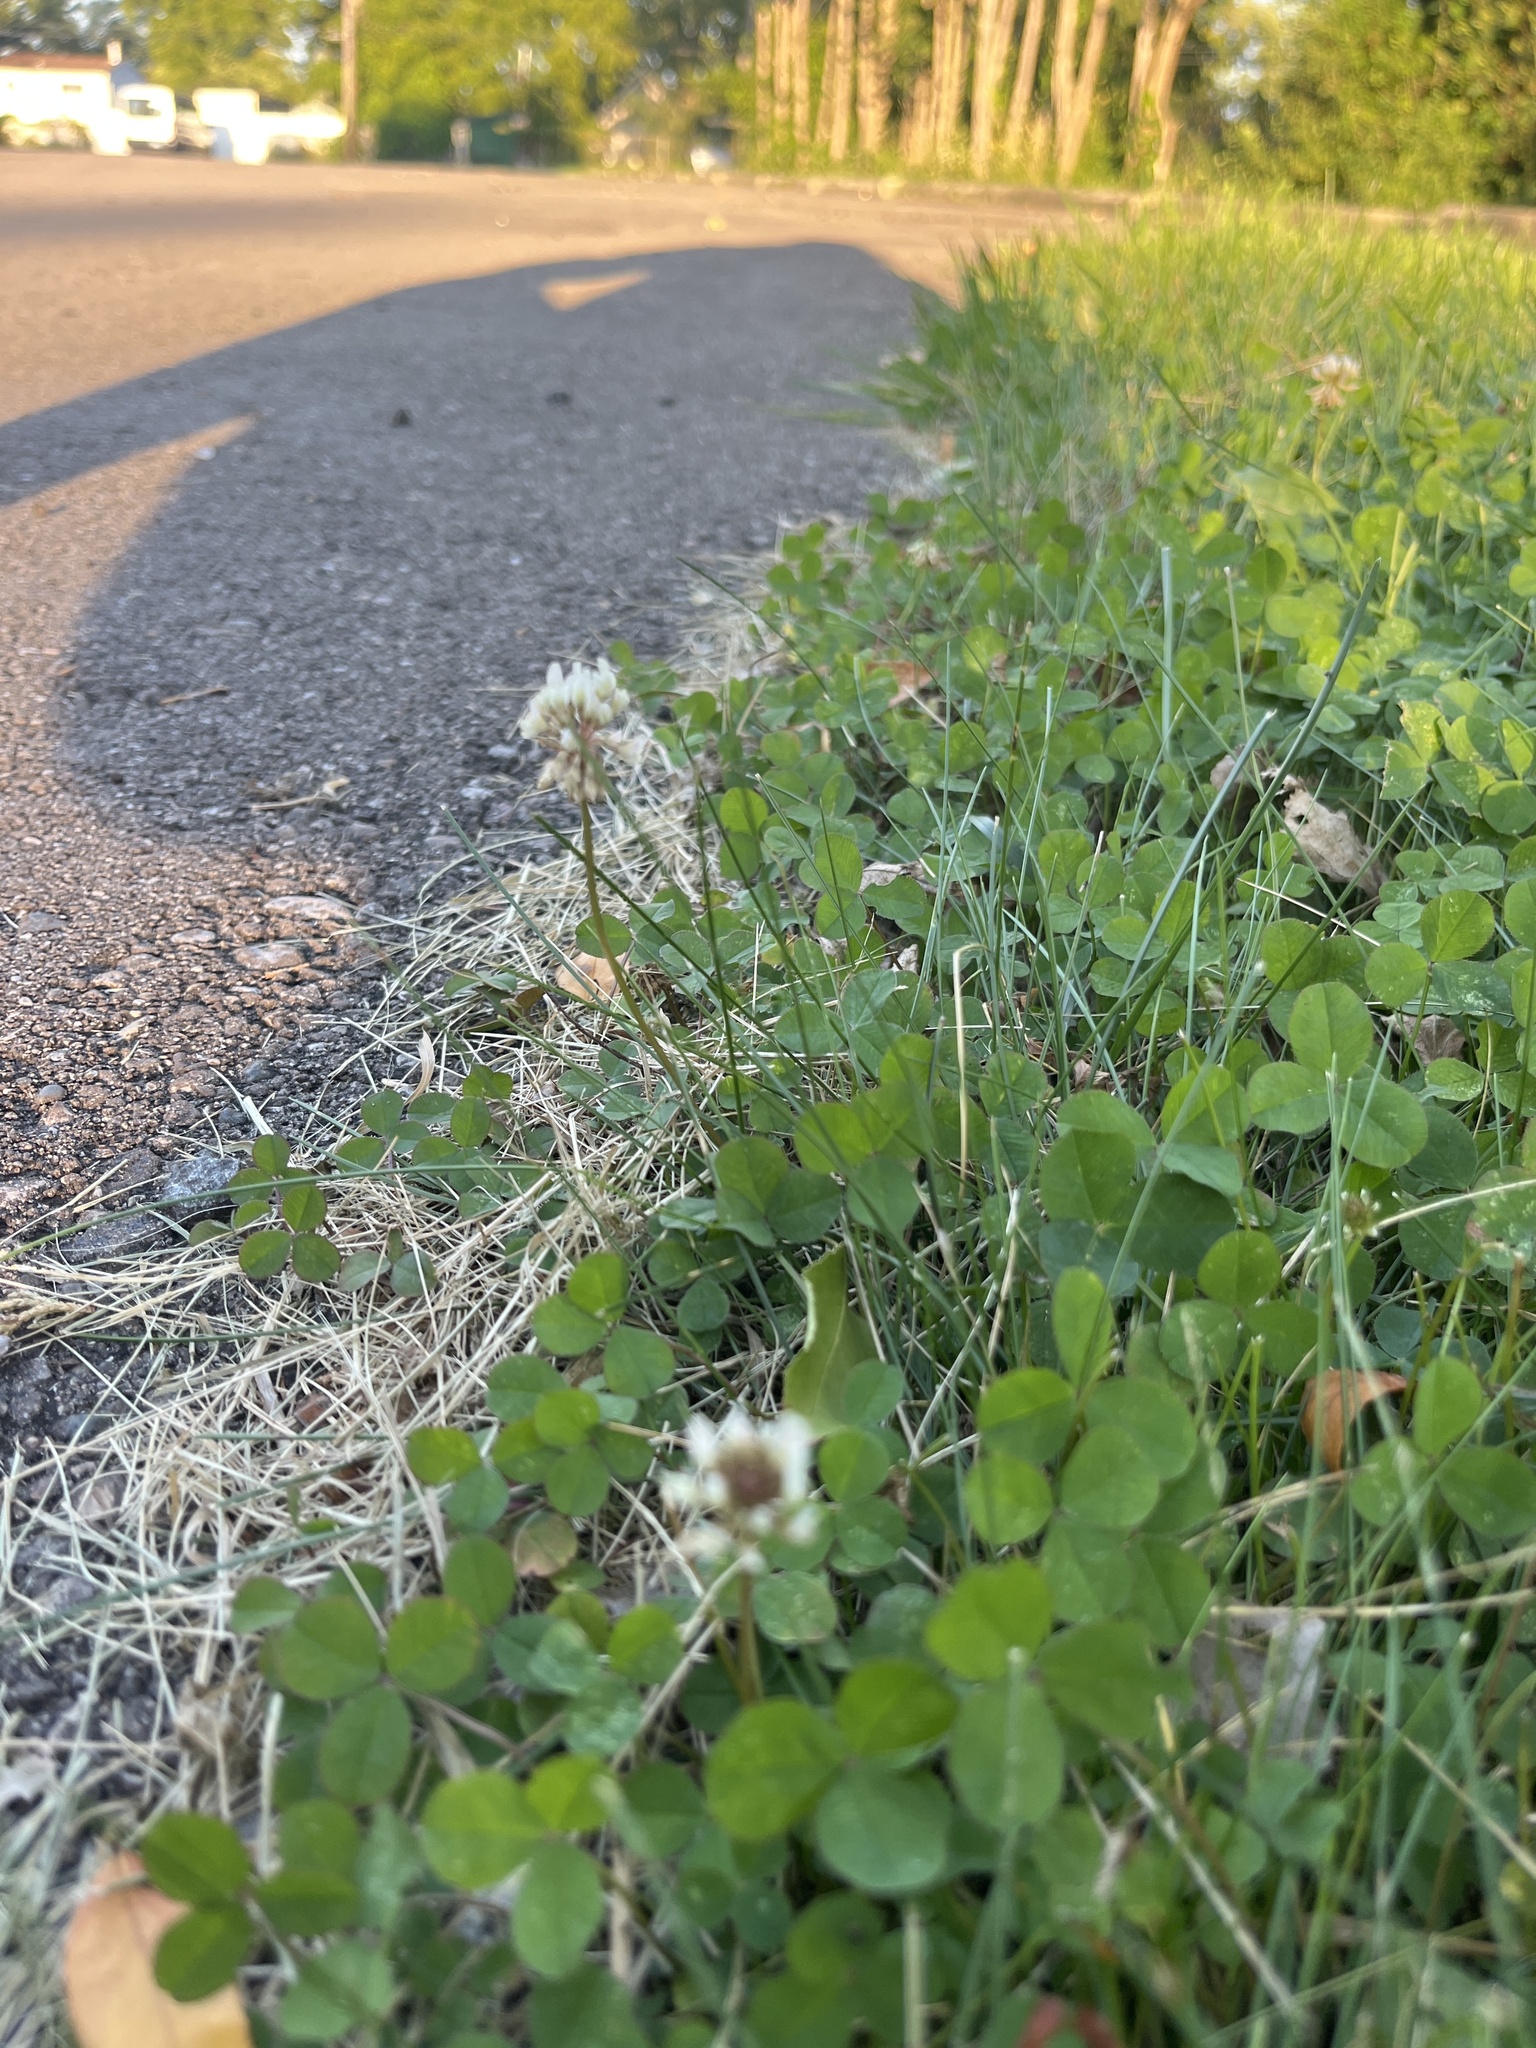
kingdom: Plantae
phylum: Tracheophyta
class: Magnoliopsida
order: Fabales
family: Fabaceae
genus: Trifolium
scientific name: Trifolium repens
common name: White clover
